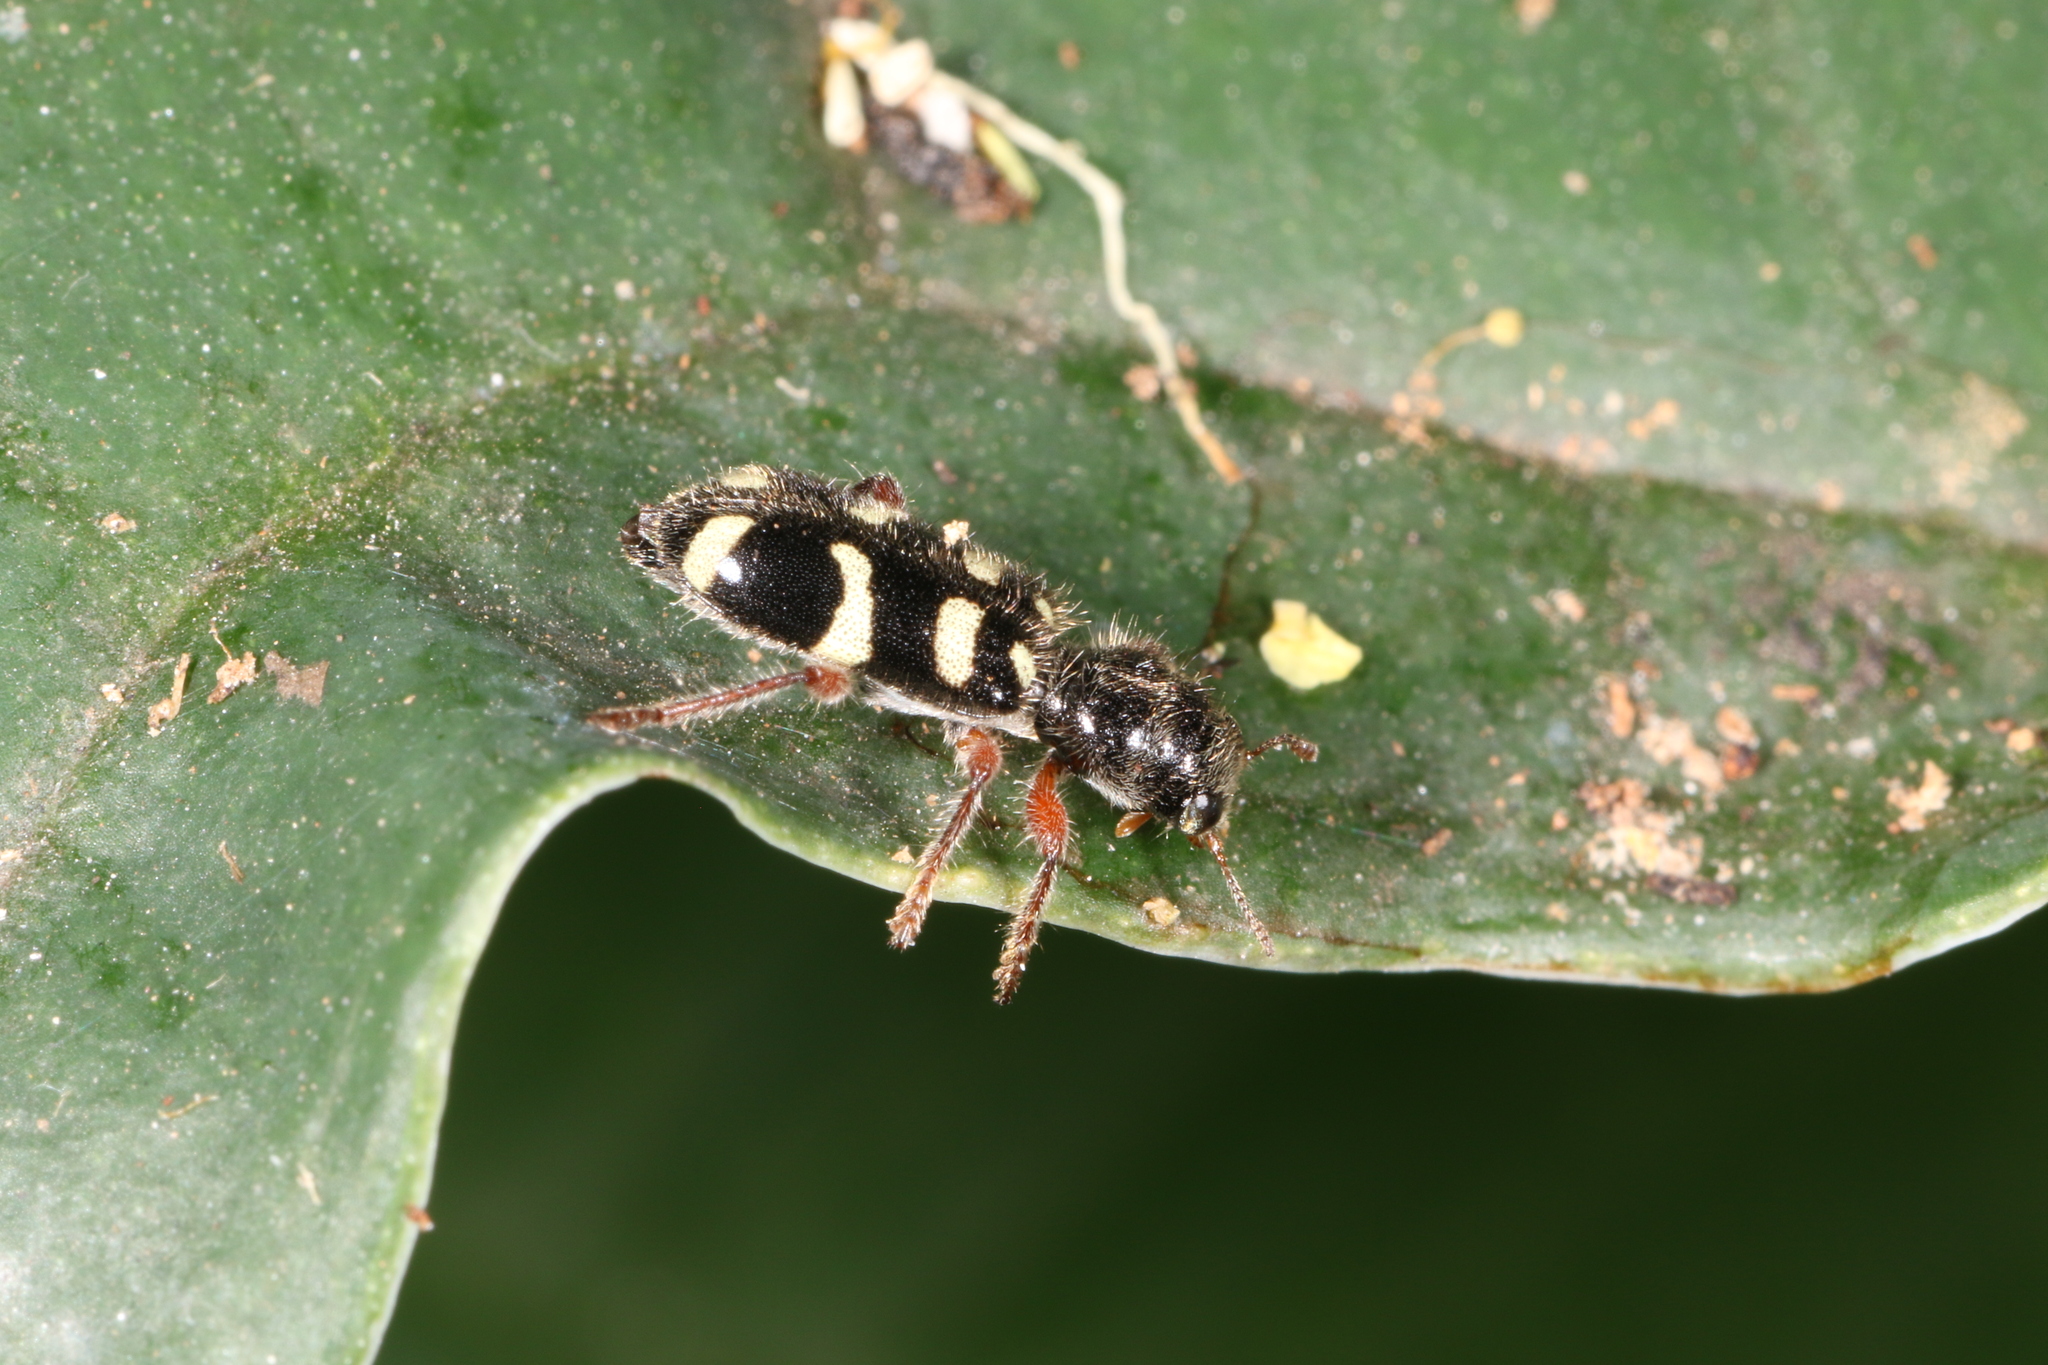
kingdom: Animalia
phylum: Arthropoda
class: Insecta
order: Coleoptera
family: Cleridae
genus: Enoclerus
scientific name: Enoclerus
